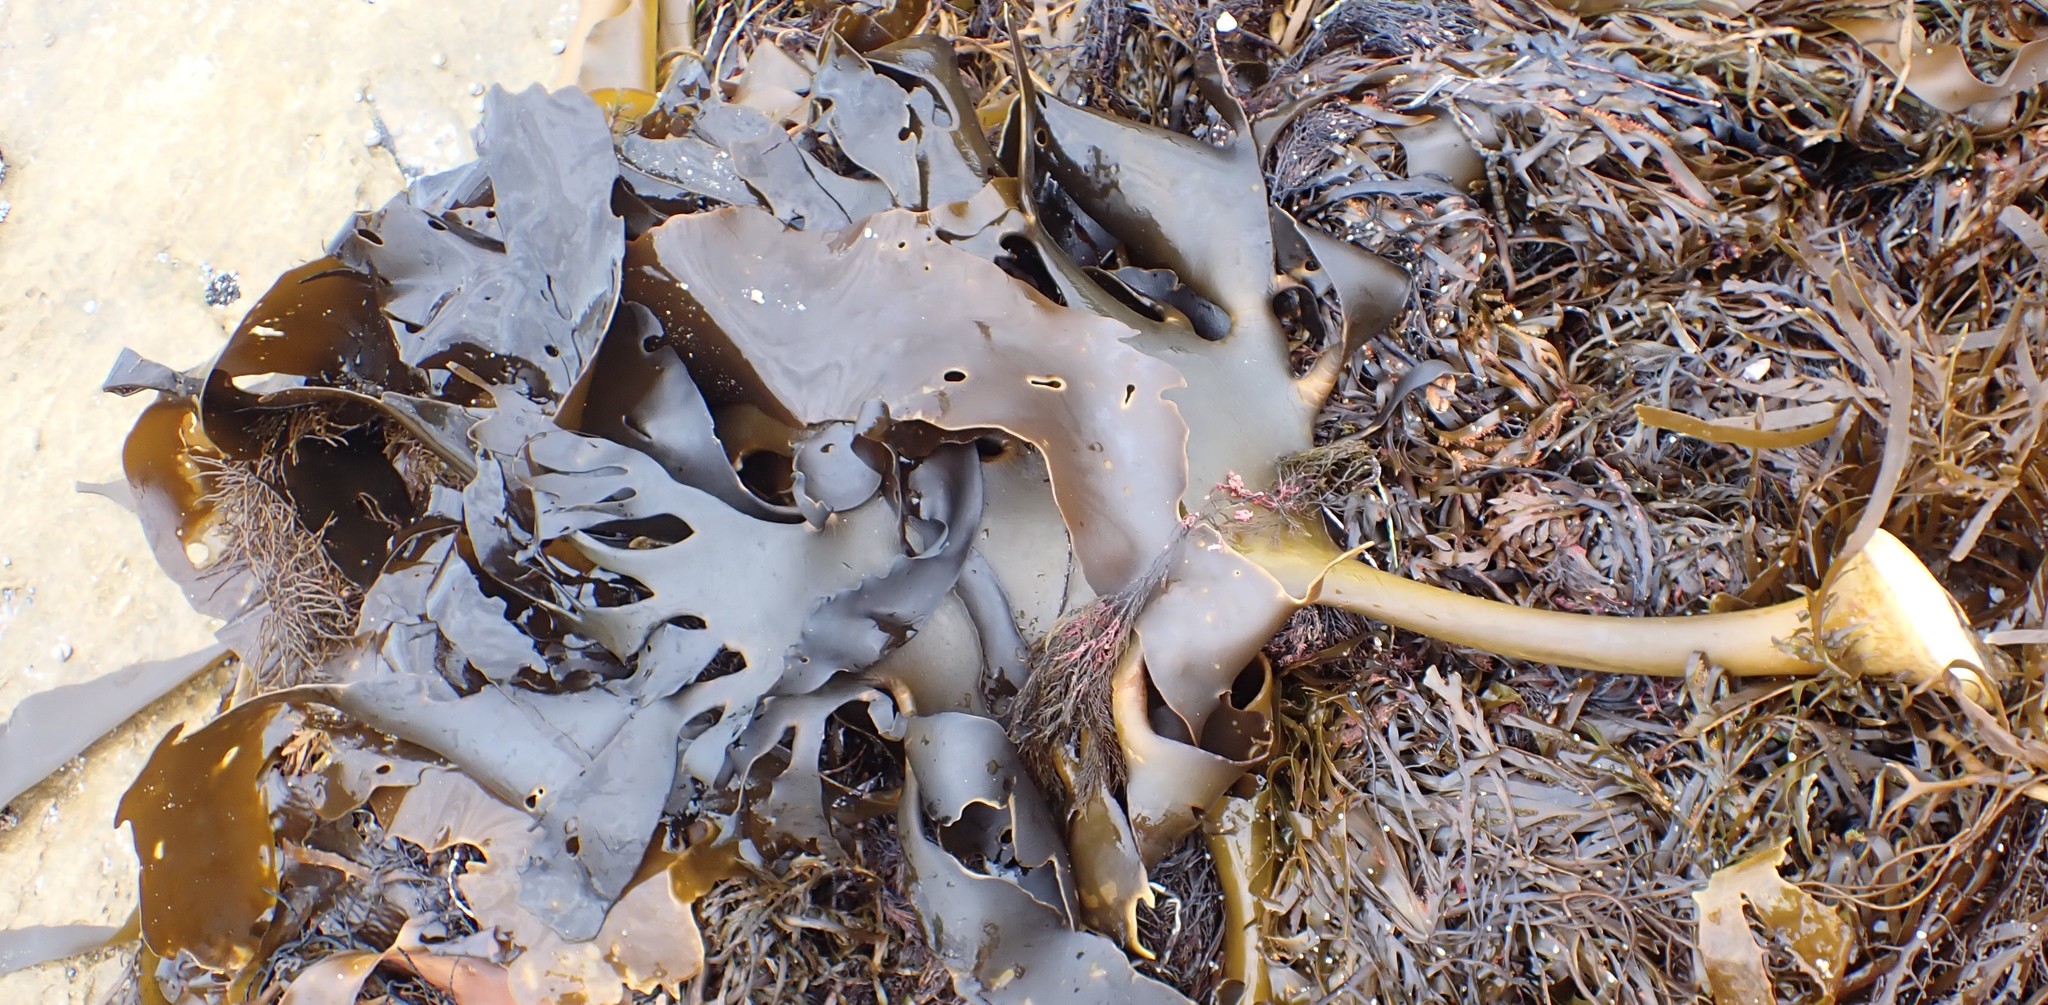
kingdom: Chromista
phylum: Ochrophyta
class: Phaeophyceae
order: Fucales
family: Durvillaeaceae
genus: Durvillaea
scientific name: Durvillaea
